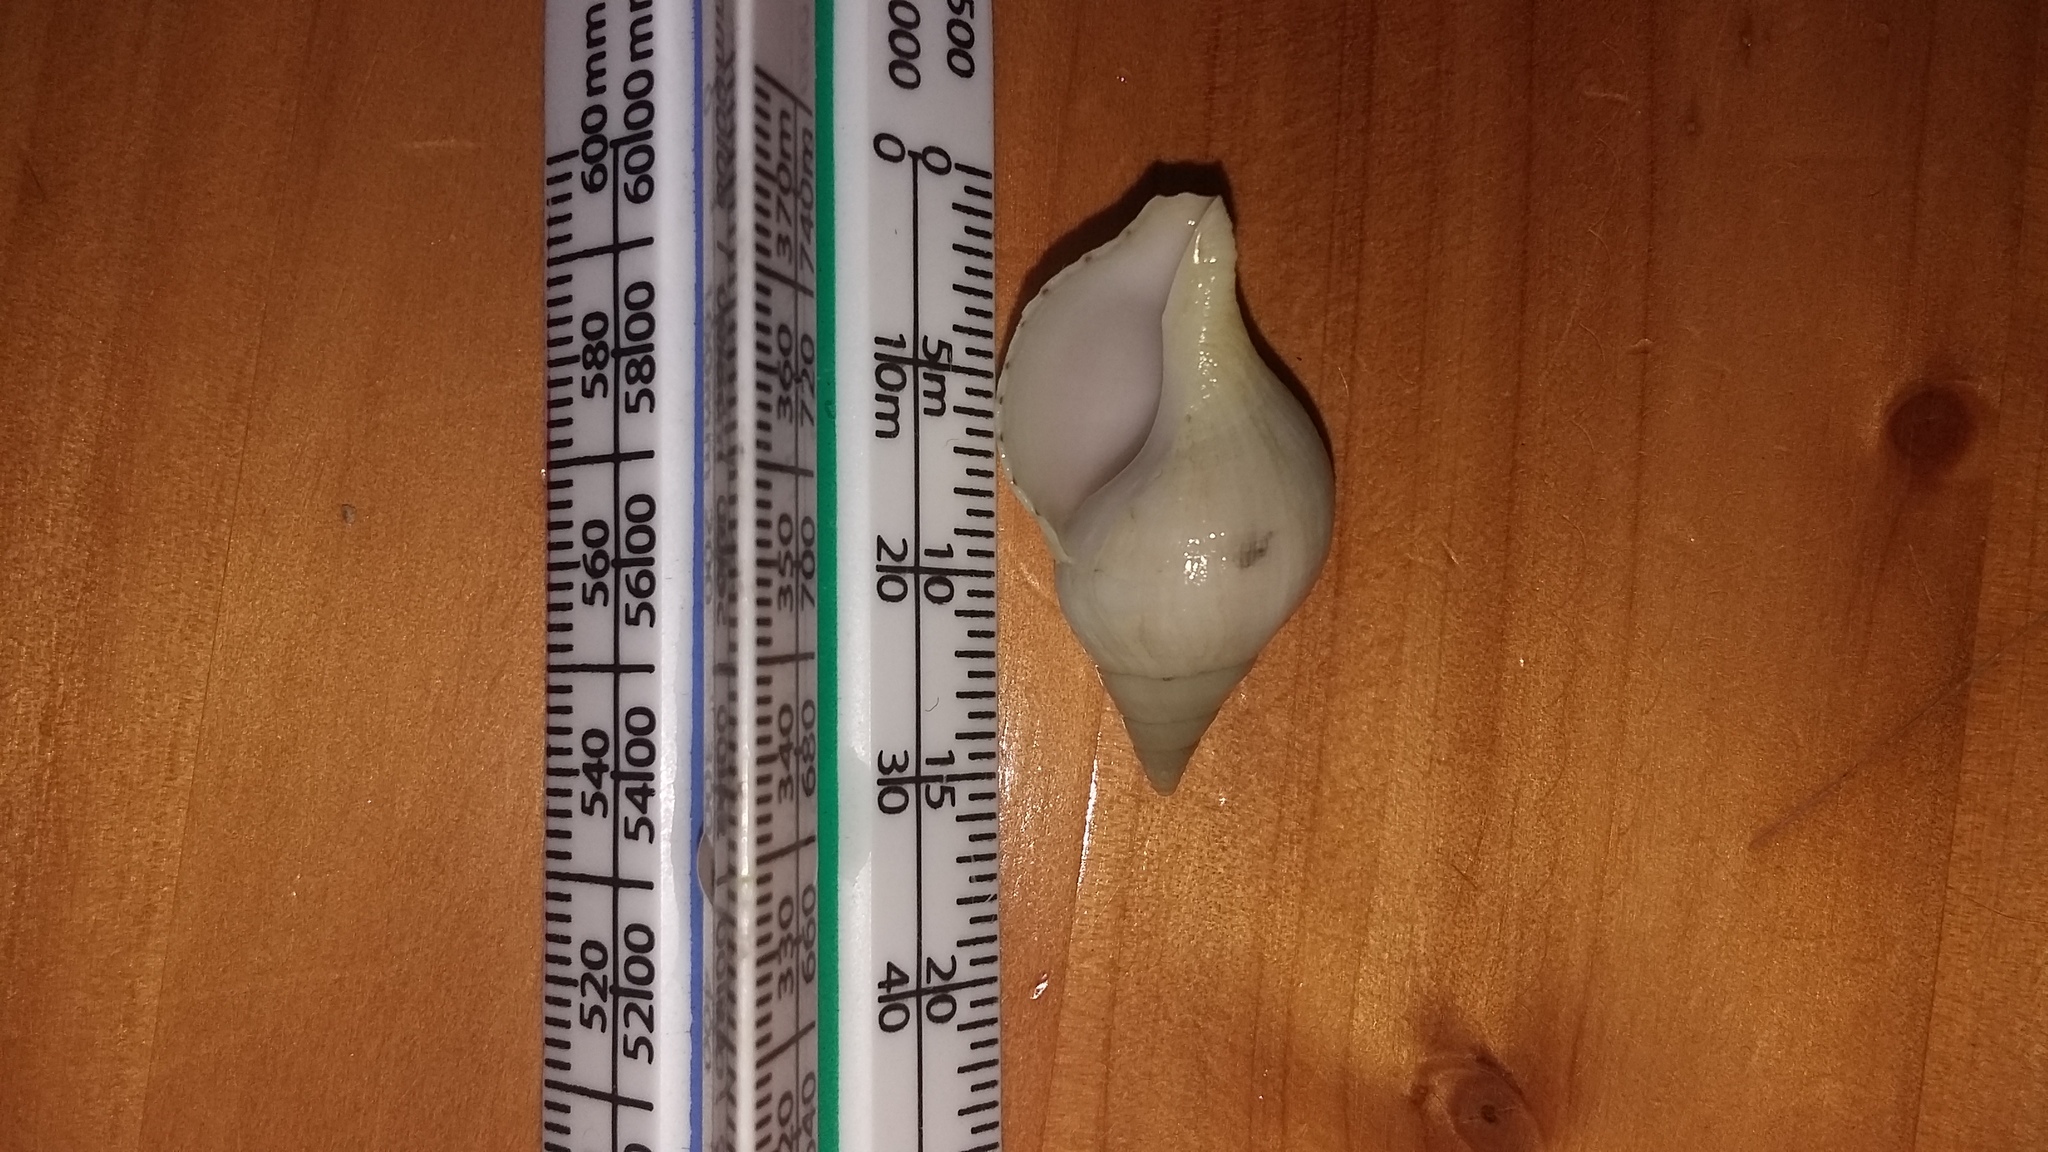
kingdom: Animalia
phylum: Mollusca
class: Gastropoda
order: Neogastropoda
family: Tudiclidae
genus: Buccinulum
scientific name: Buccinulum linea
